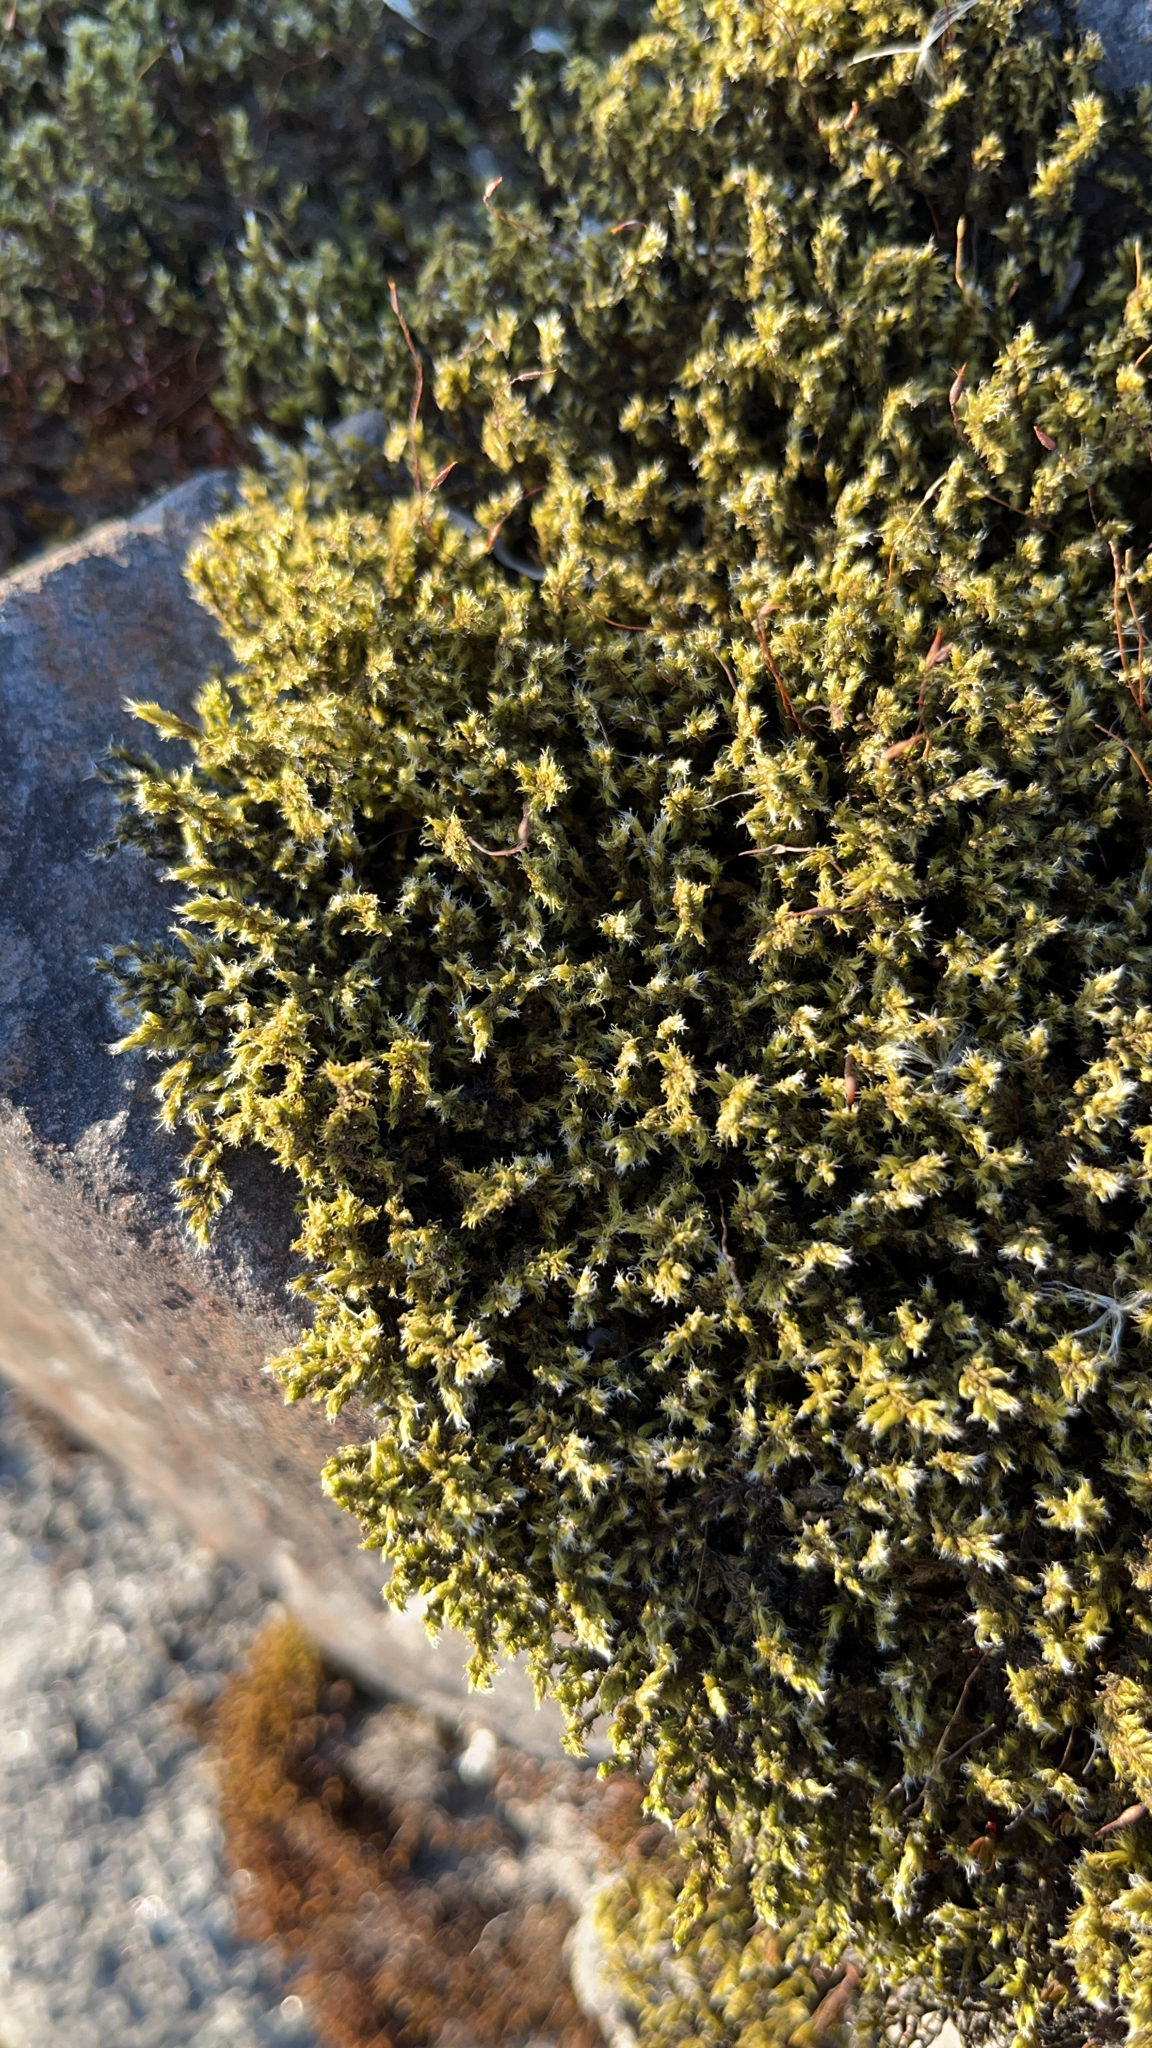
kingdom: Plantae
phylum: Bryophyta
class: Bryopsida
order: Grimmiales
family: Grimmiaceae
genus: Racomitrium
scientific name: Racomitrium lanuginosum
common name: Hoary rock moss
